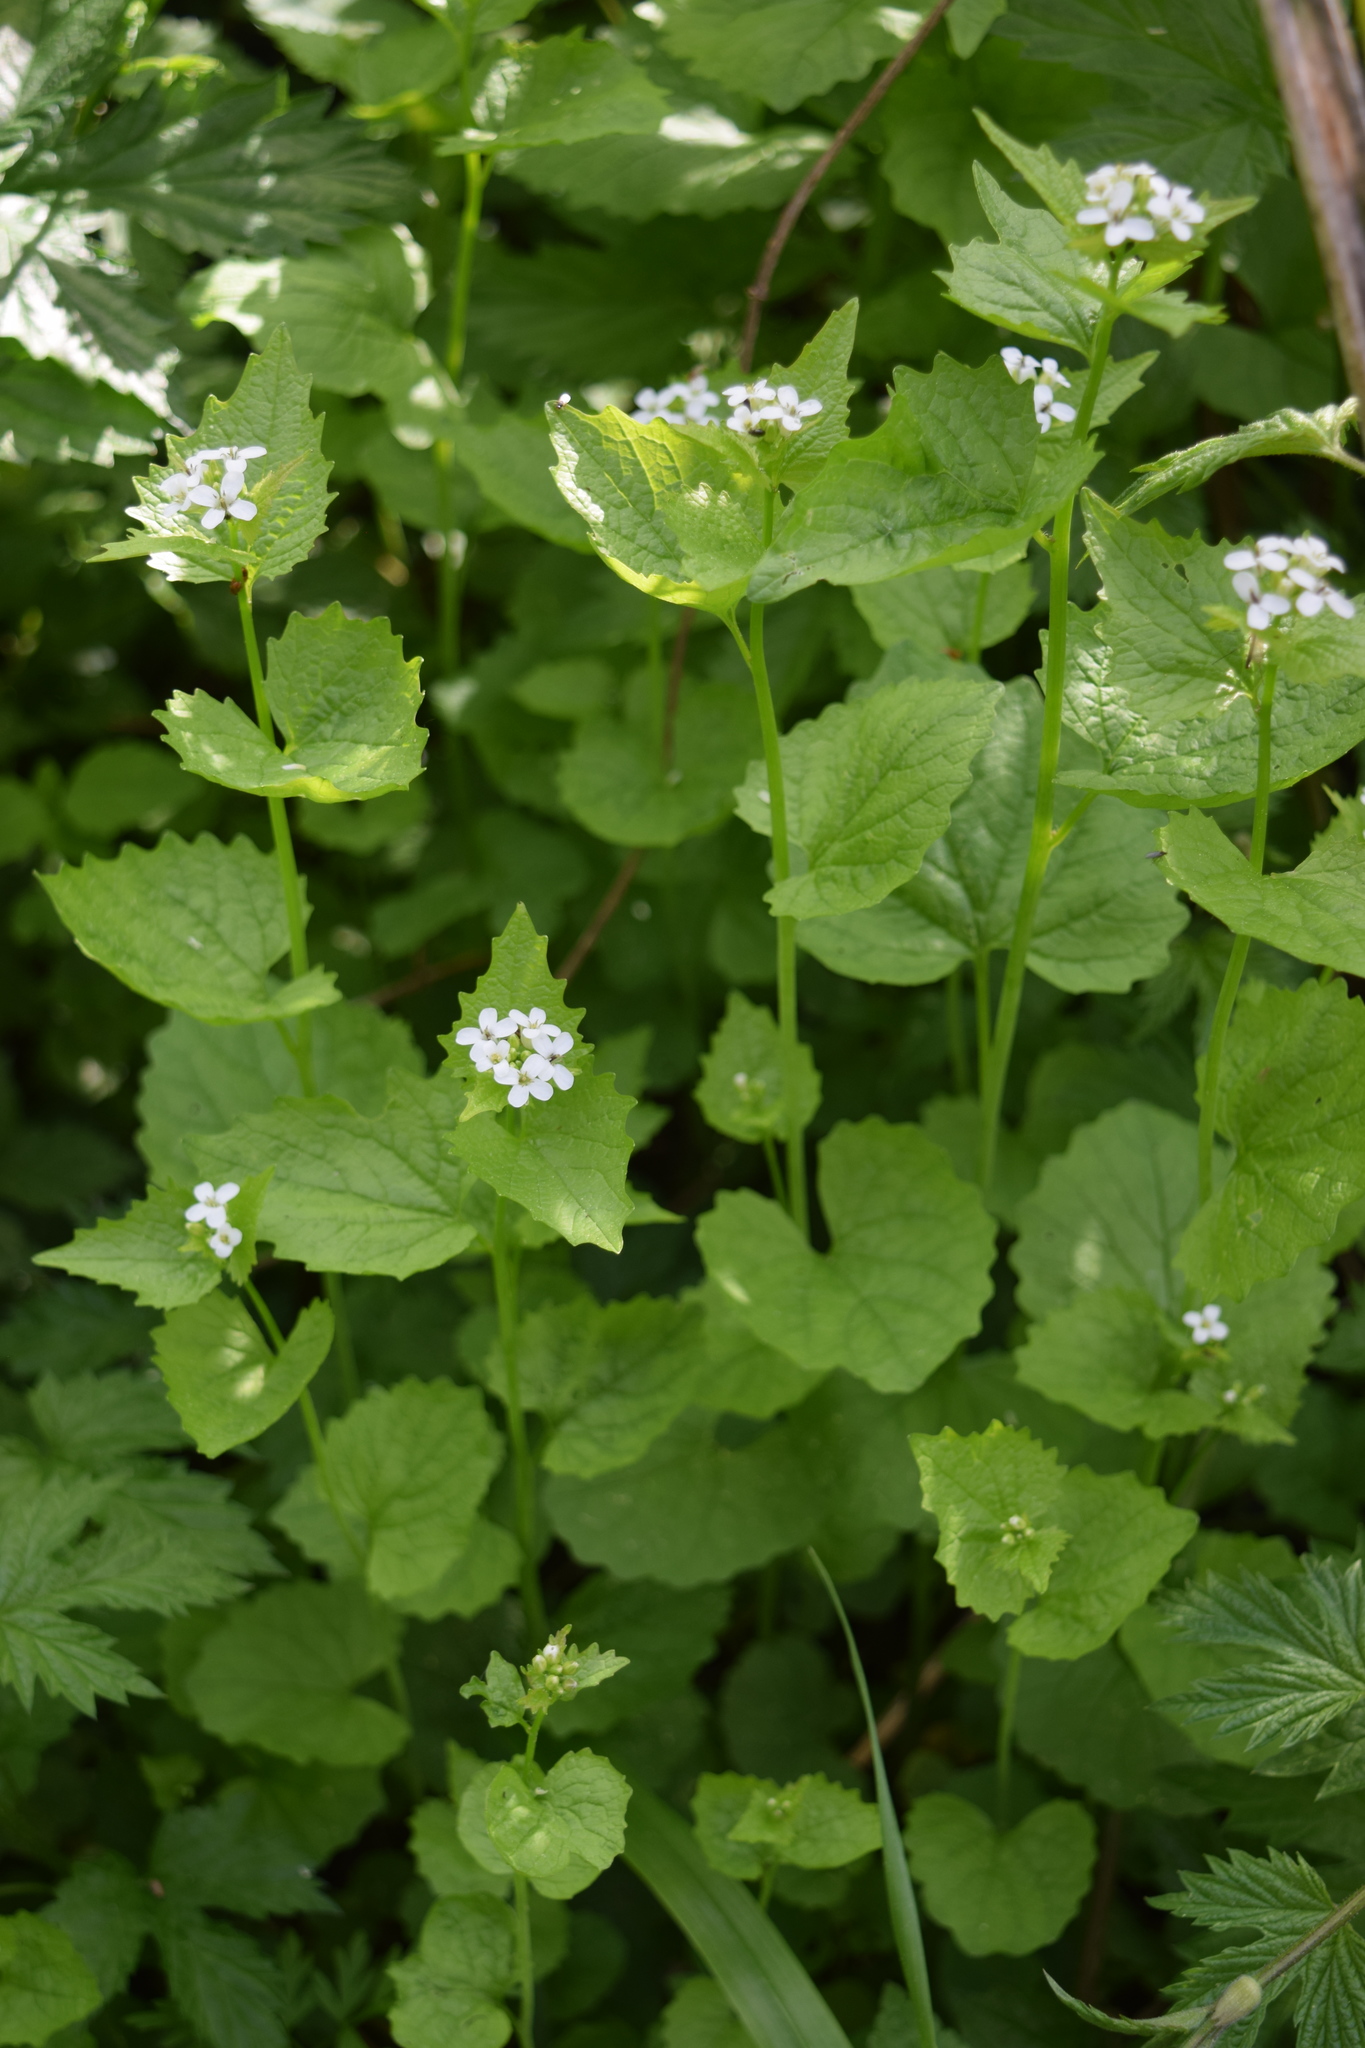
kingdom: Plantae
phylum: Tracheophyta
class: Magnoliopsida
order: Brassicales
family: Brassicaceae
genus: Alliaria
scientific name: Alliaria petiolata
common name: Garlic mustard
